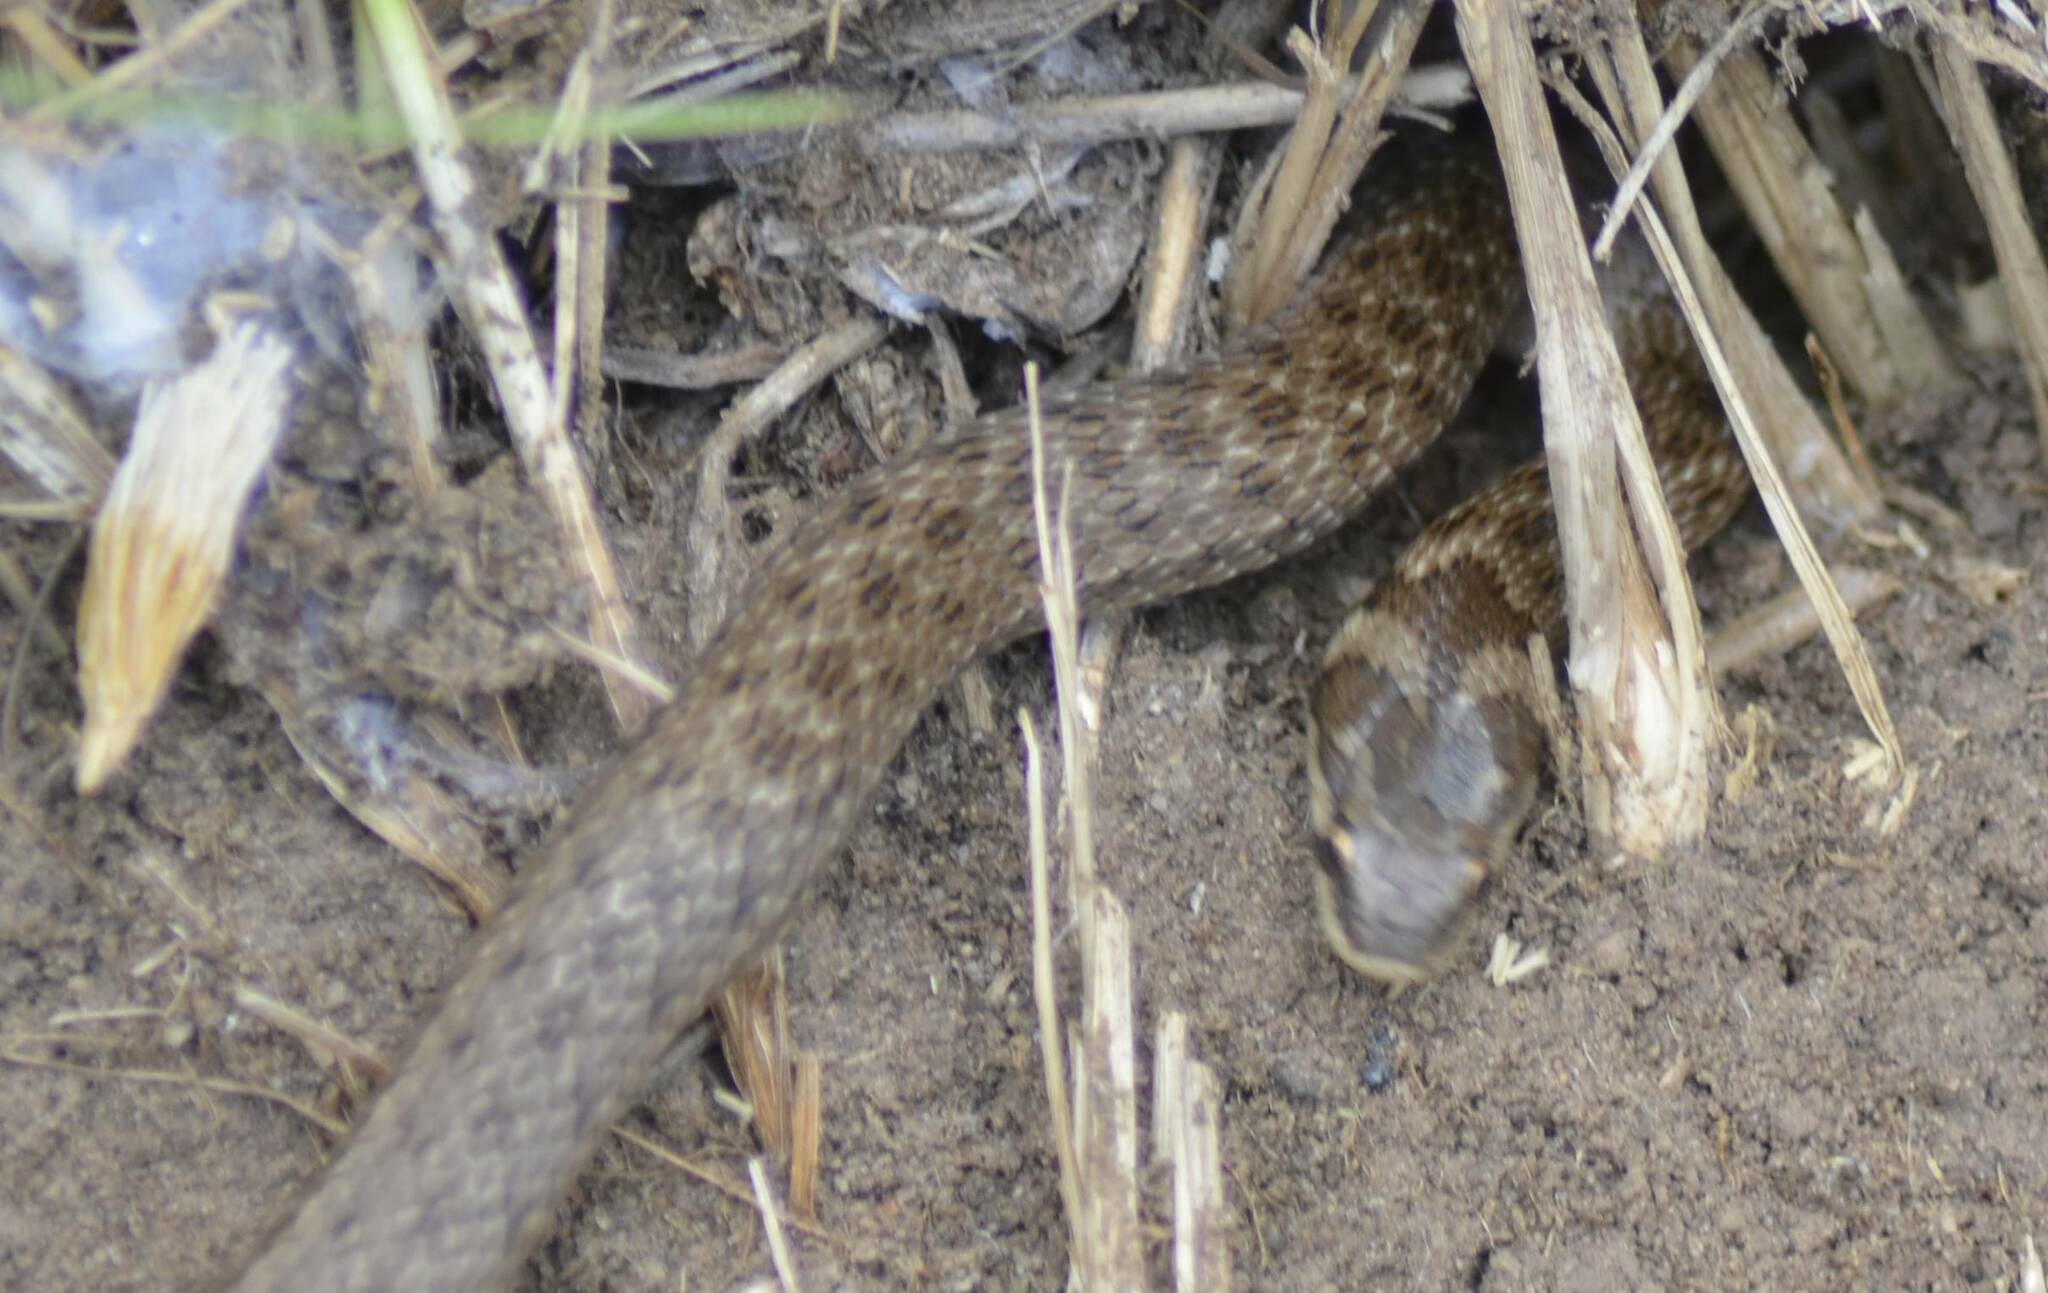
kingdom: Animalia
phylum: Chordata
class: Squamata
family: Colubridae
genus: Macroprotodon
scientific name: Macroprotodon mauritanicus
